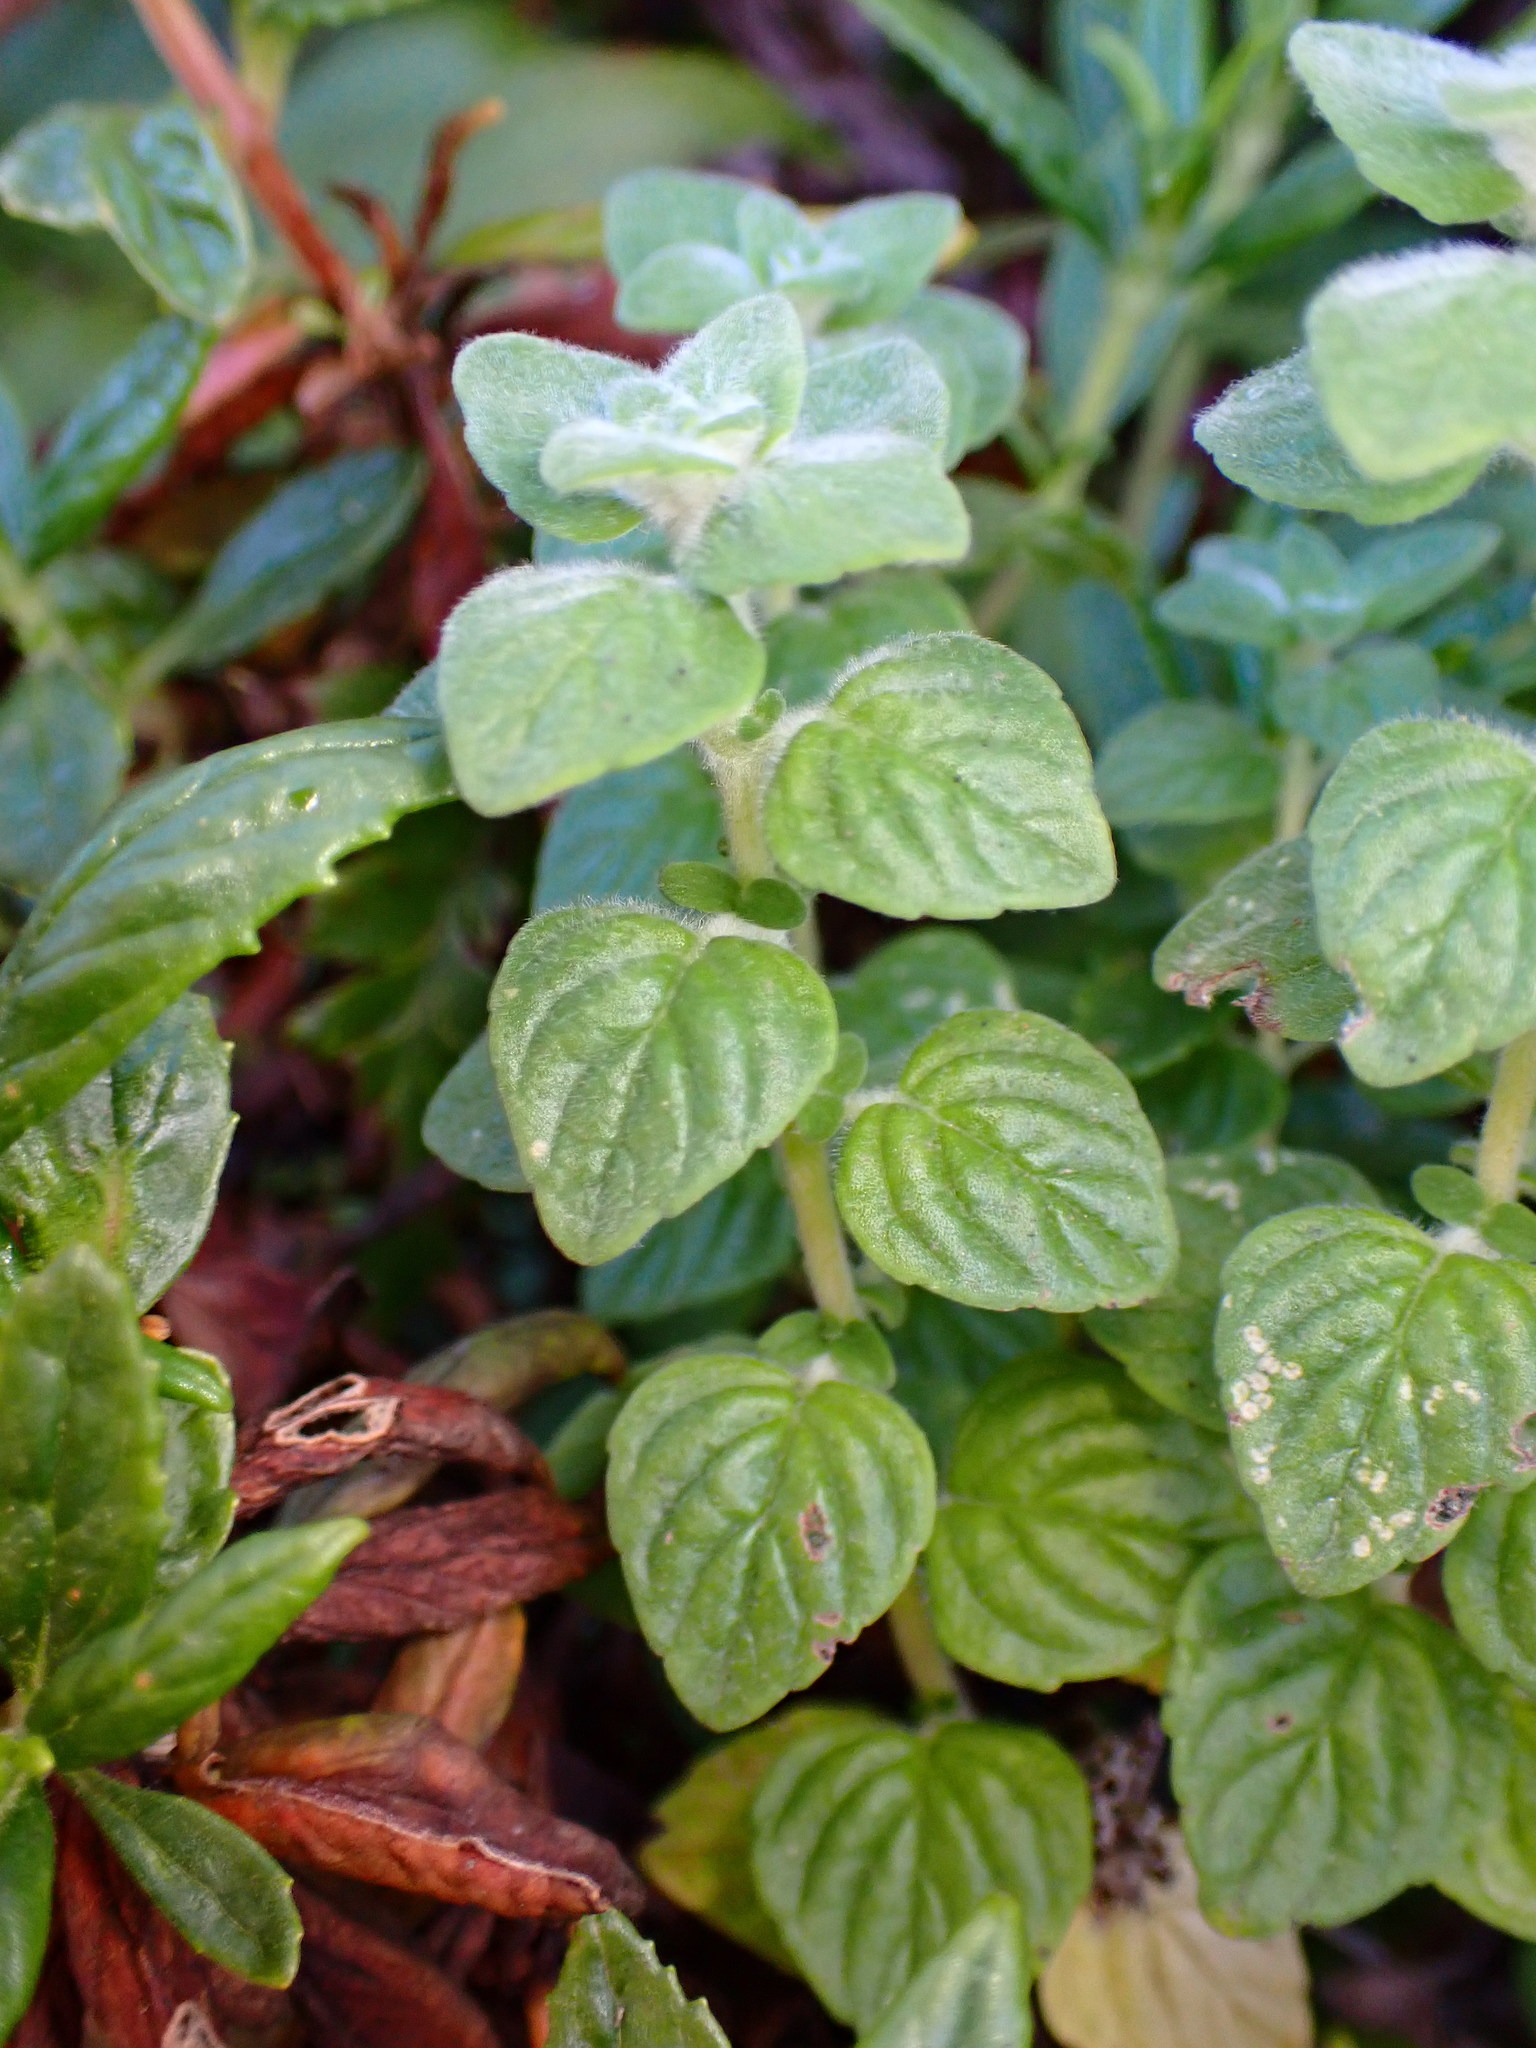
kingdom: Plantae
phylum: Tracheophyta
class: Magnoliopsida
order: Lamiales
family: Lamiaceae
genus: Monardella
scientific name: Monardella odoratissima
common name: Pacific monardella
